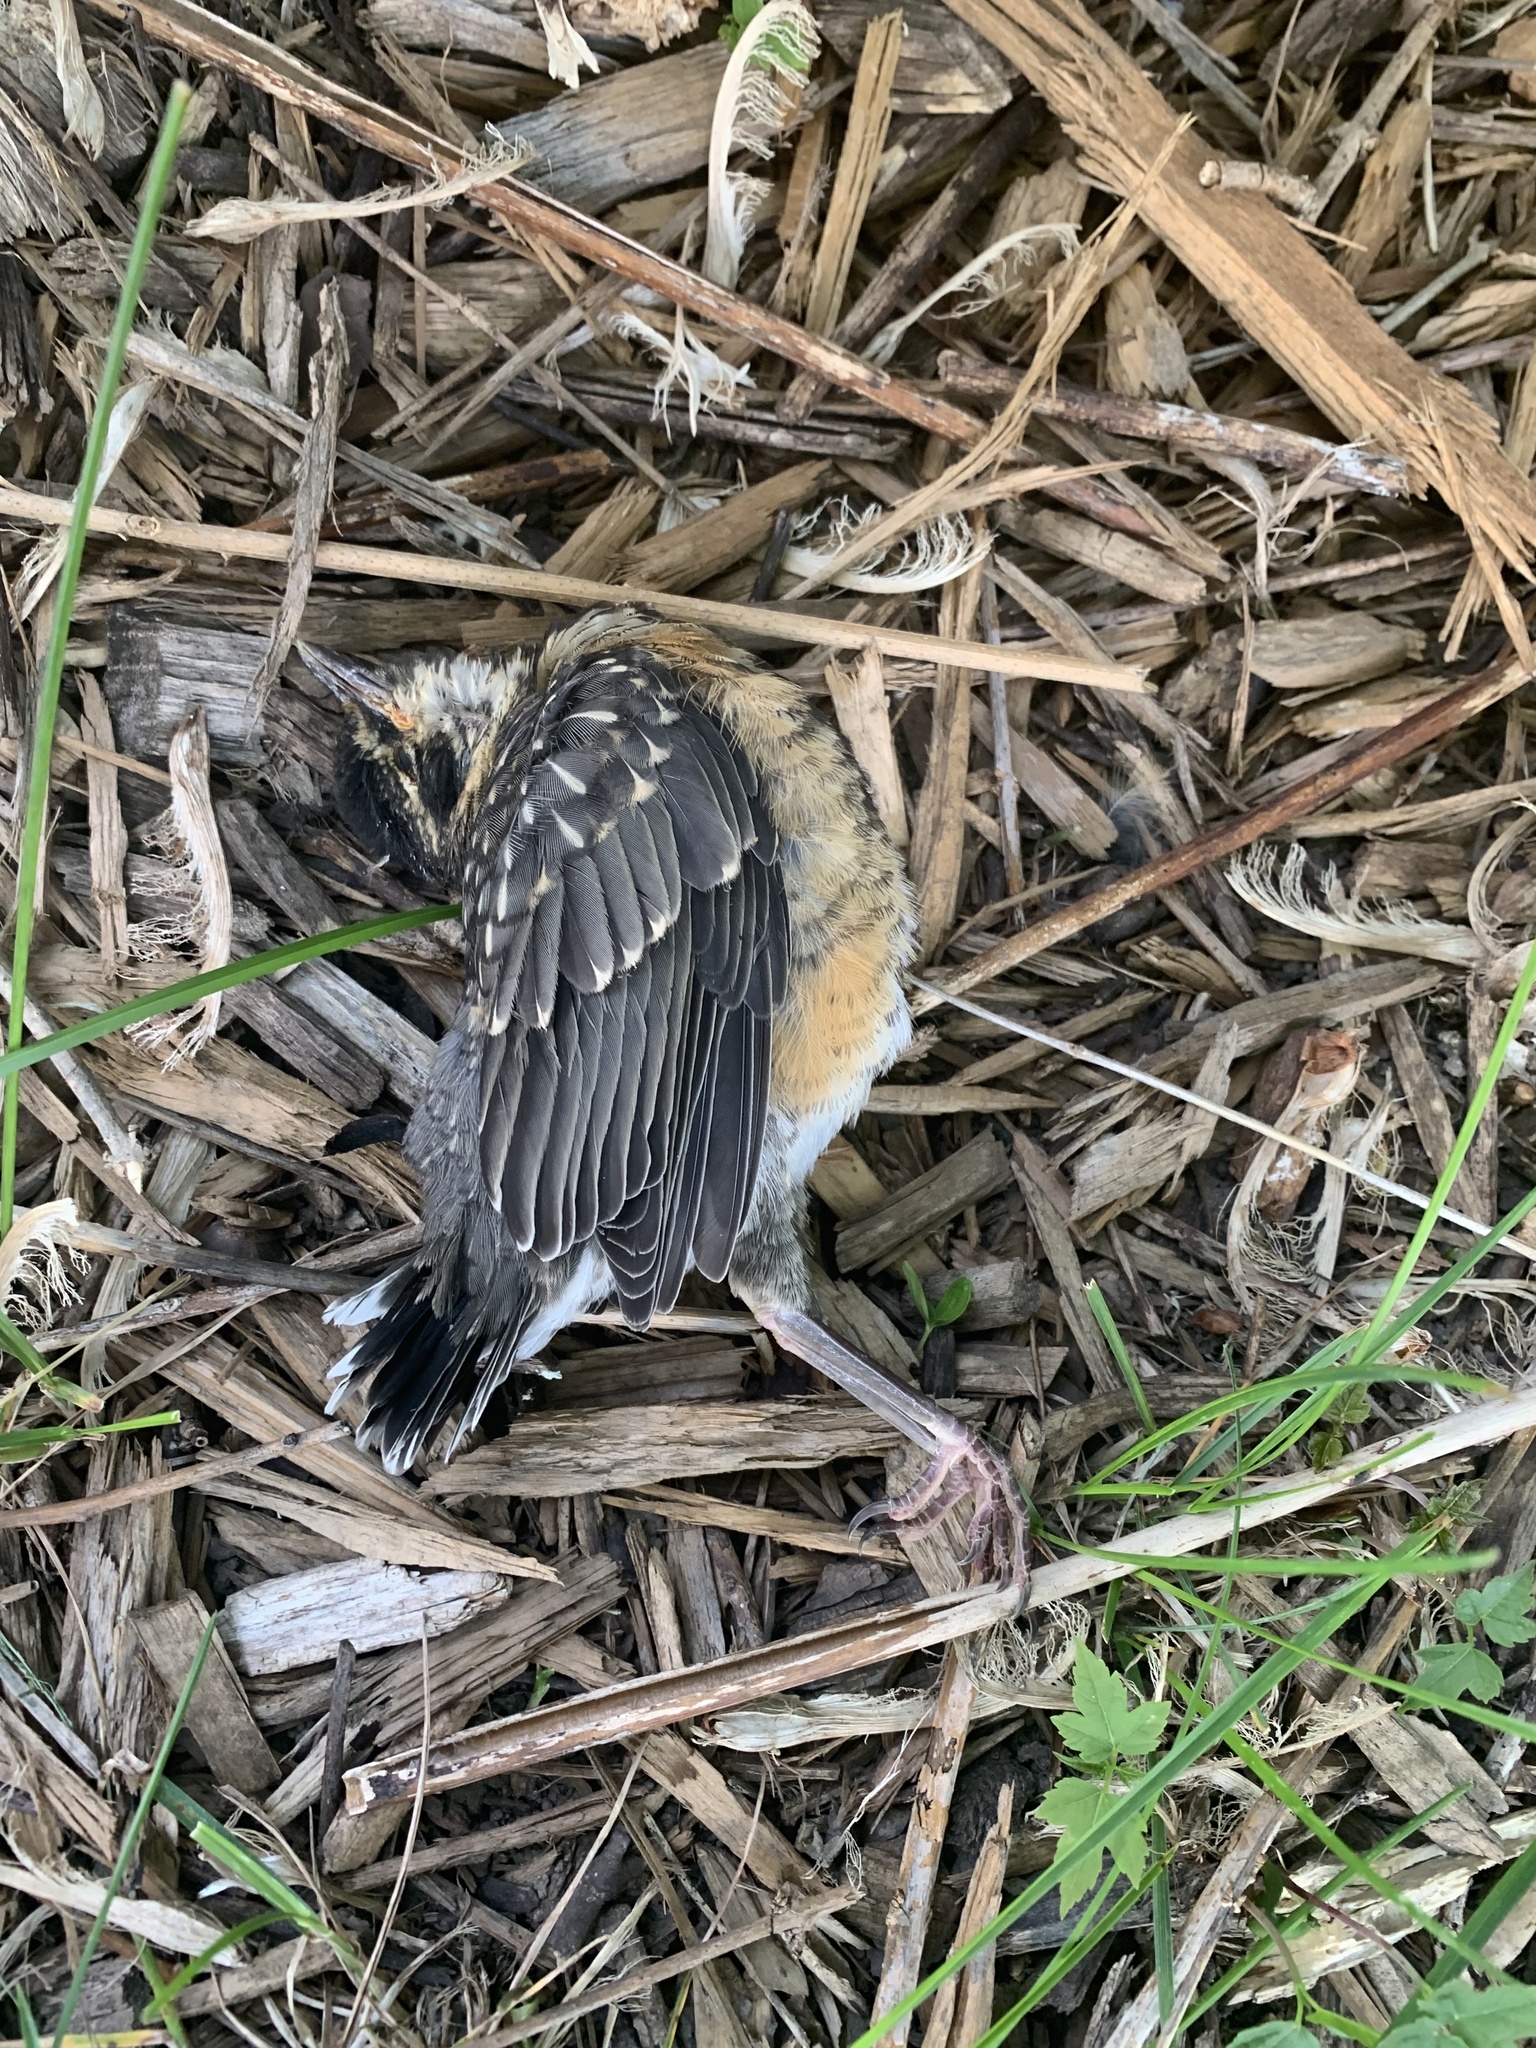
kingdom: Animalia
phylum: Chordata
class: Aves
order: Passeriformes
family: Turdidae
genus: Turdus
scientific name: Turdus migratorius
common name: American robin
